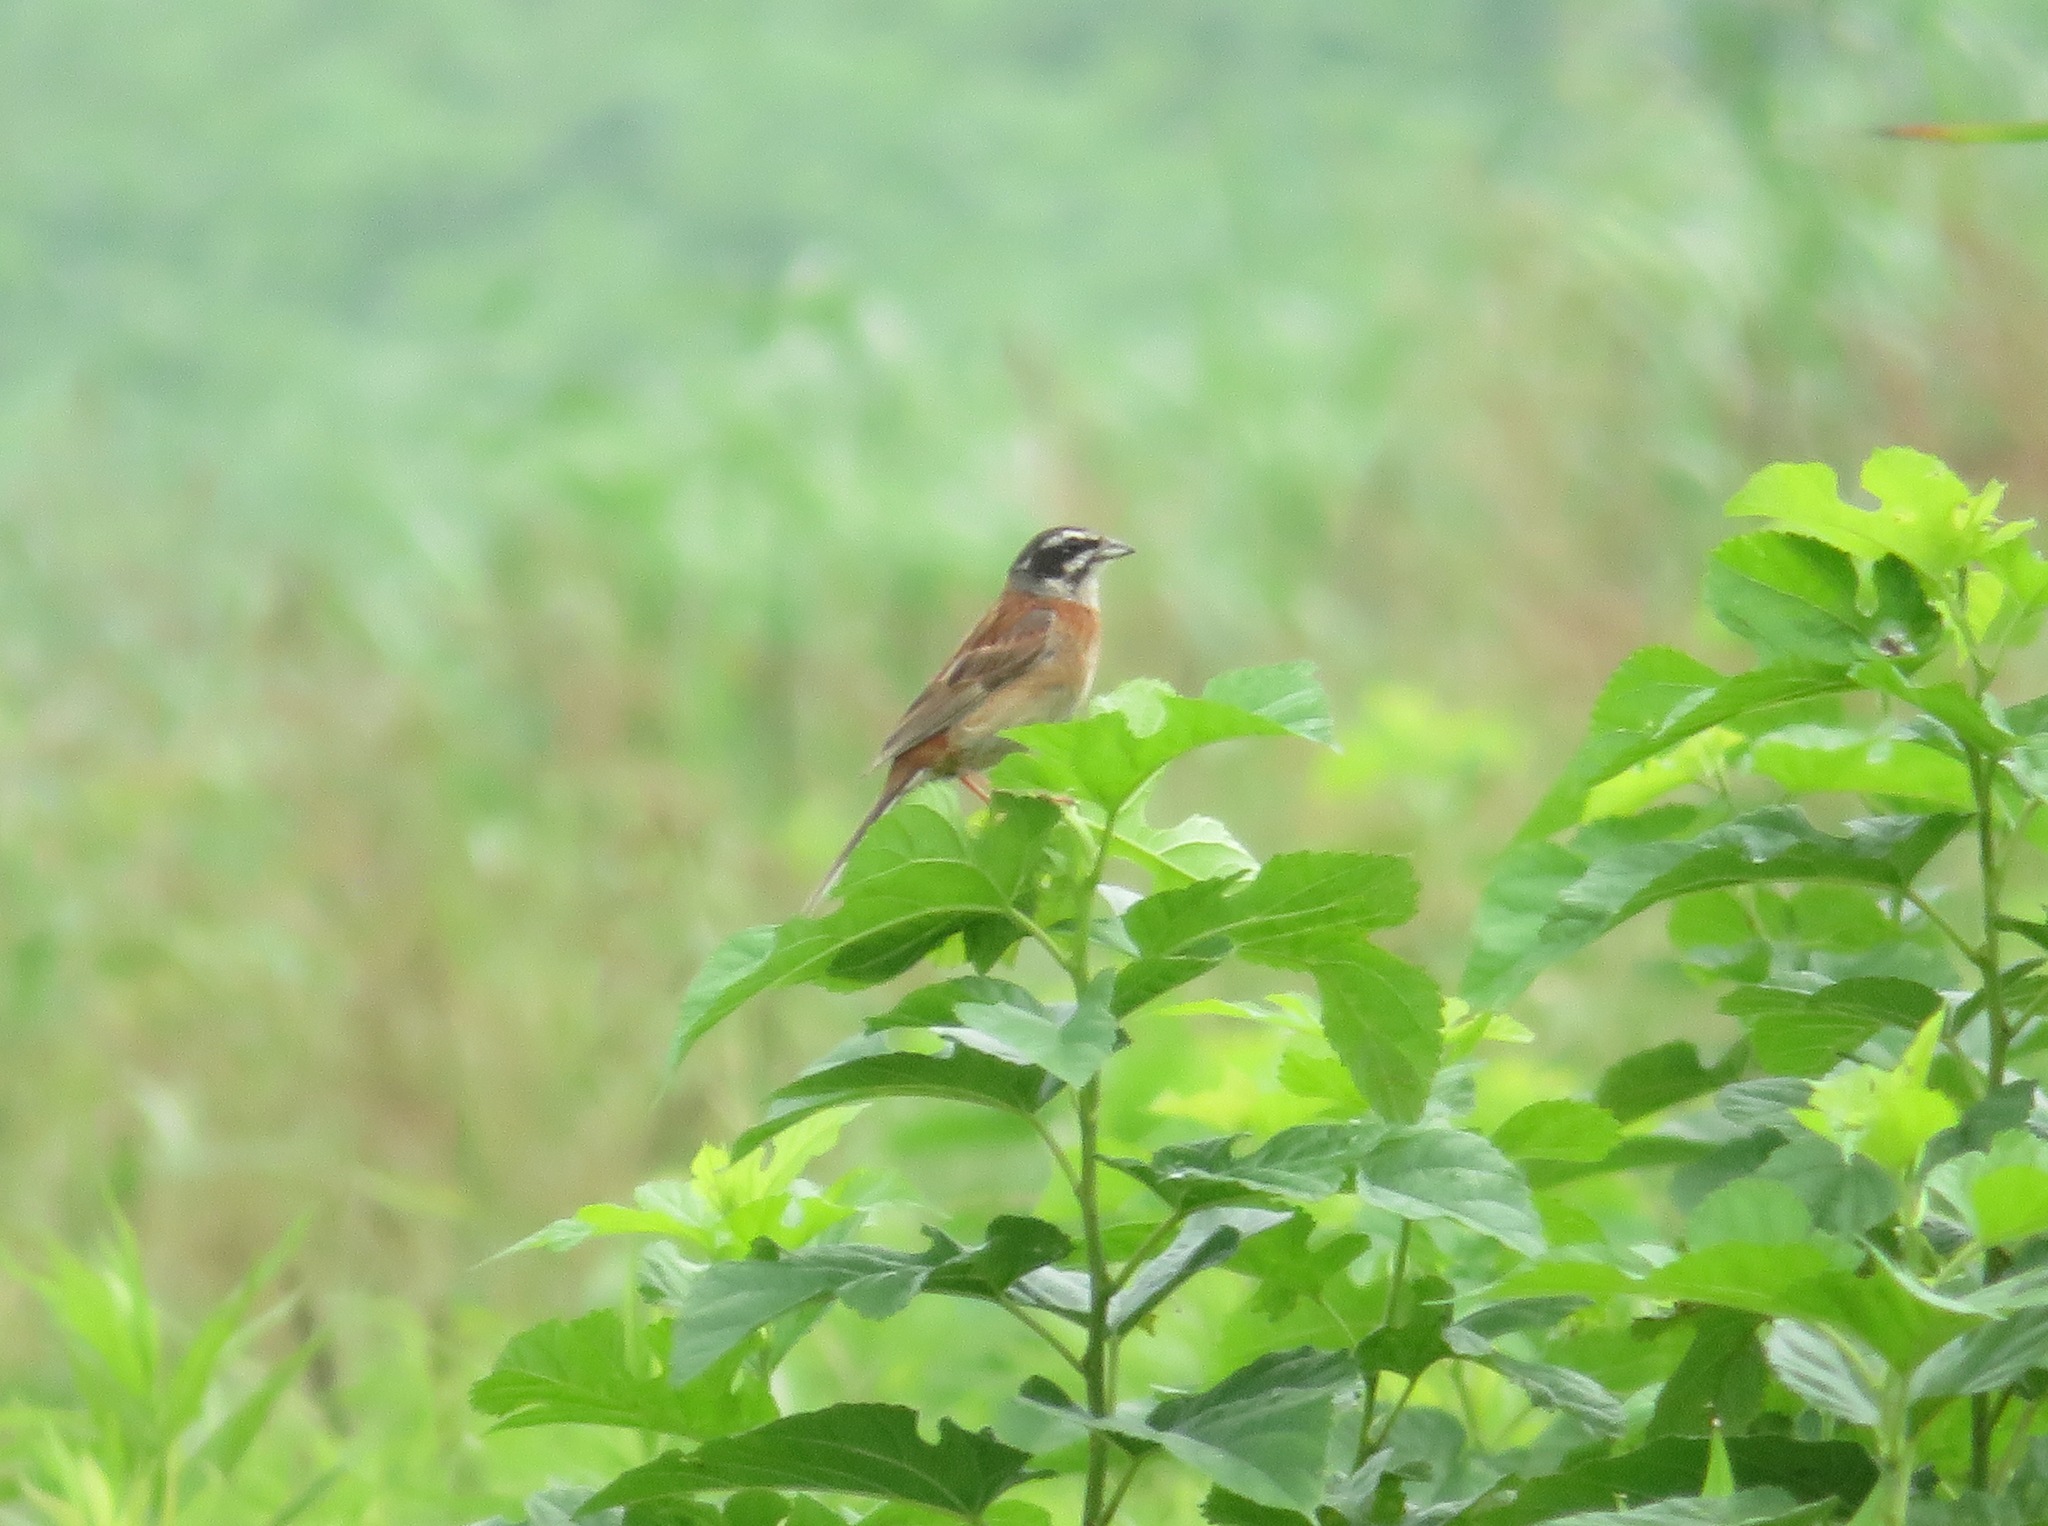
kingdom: Animalia
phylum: Chordata
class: Aves
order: Passeriformes
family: Emberizidae
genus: Emberiza
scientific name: Emberiza cioides
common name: Meadow bunting
